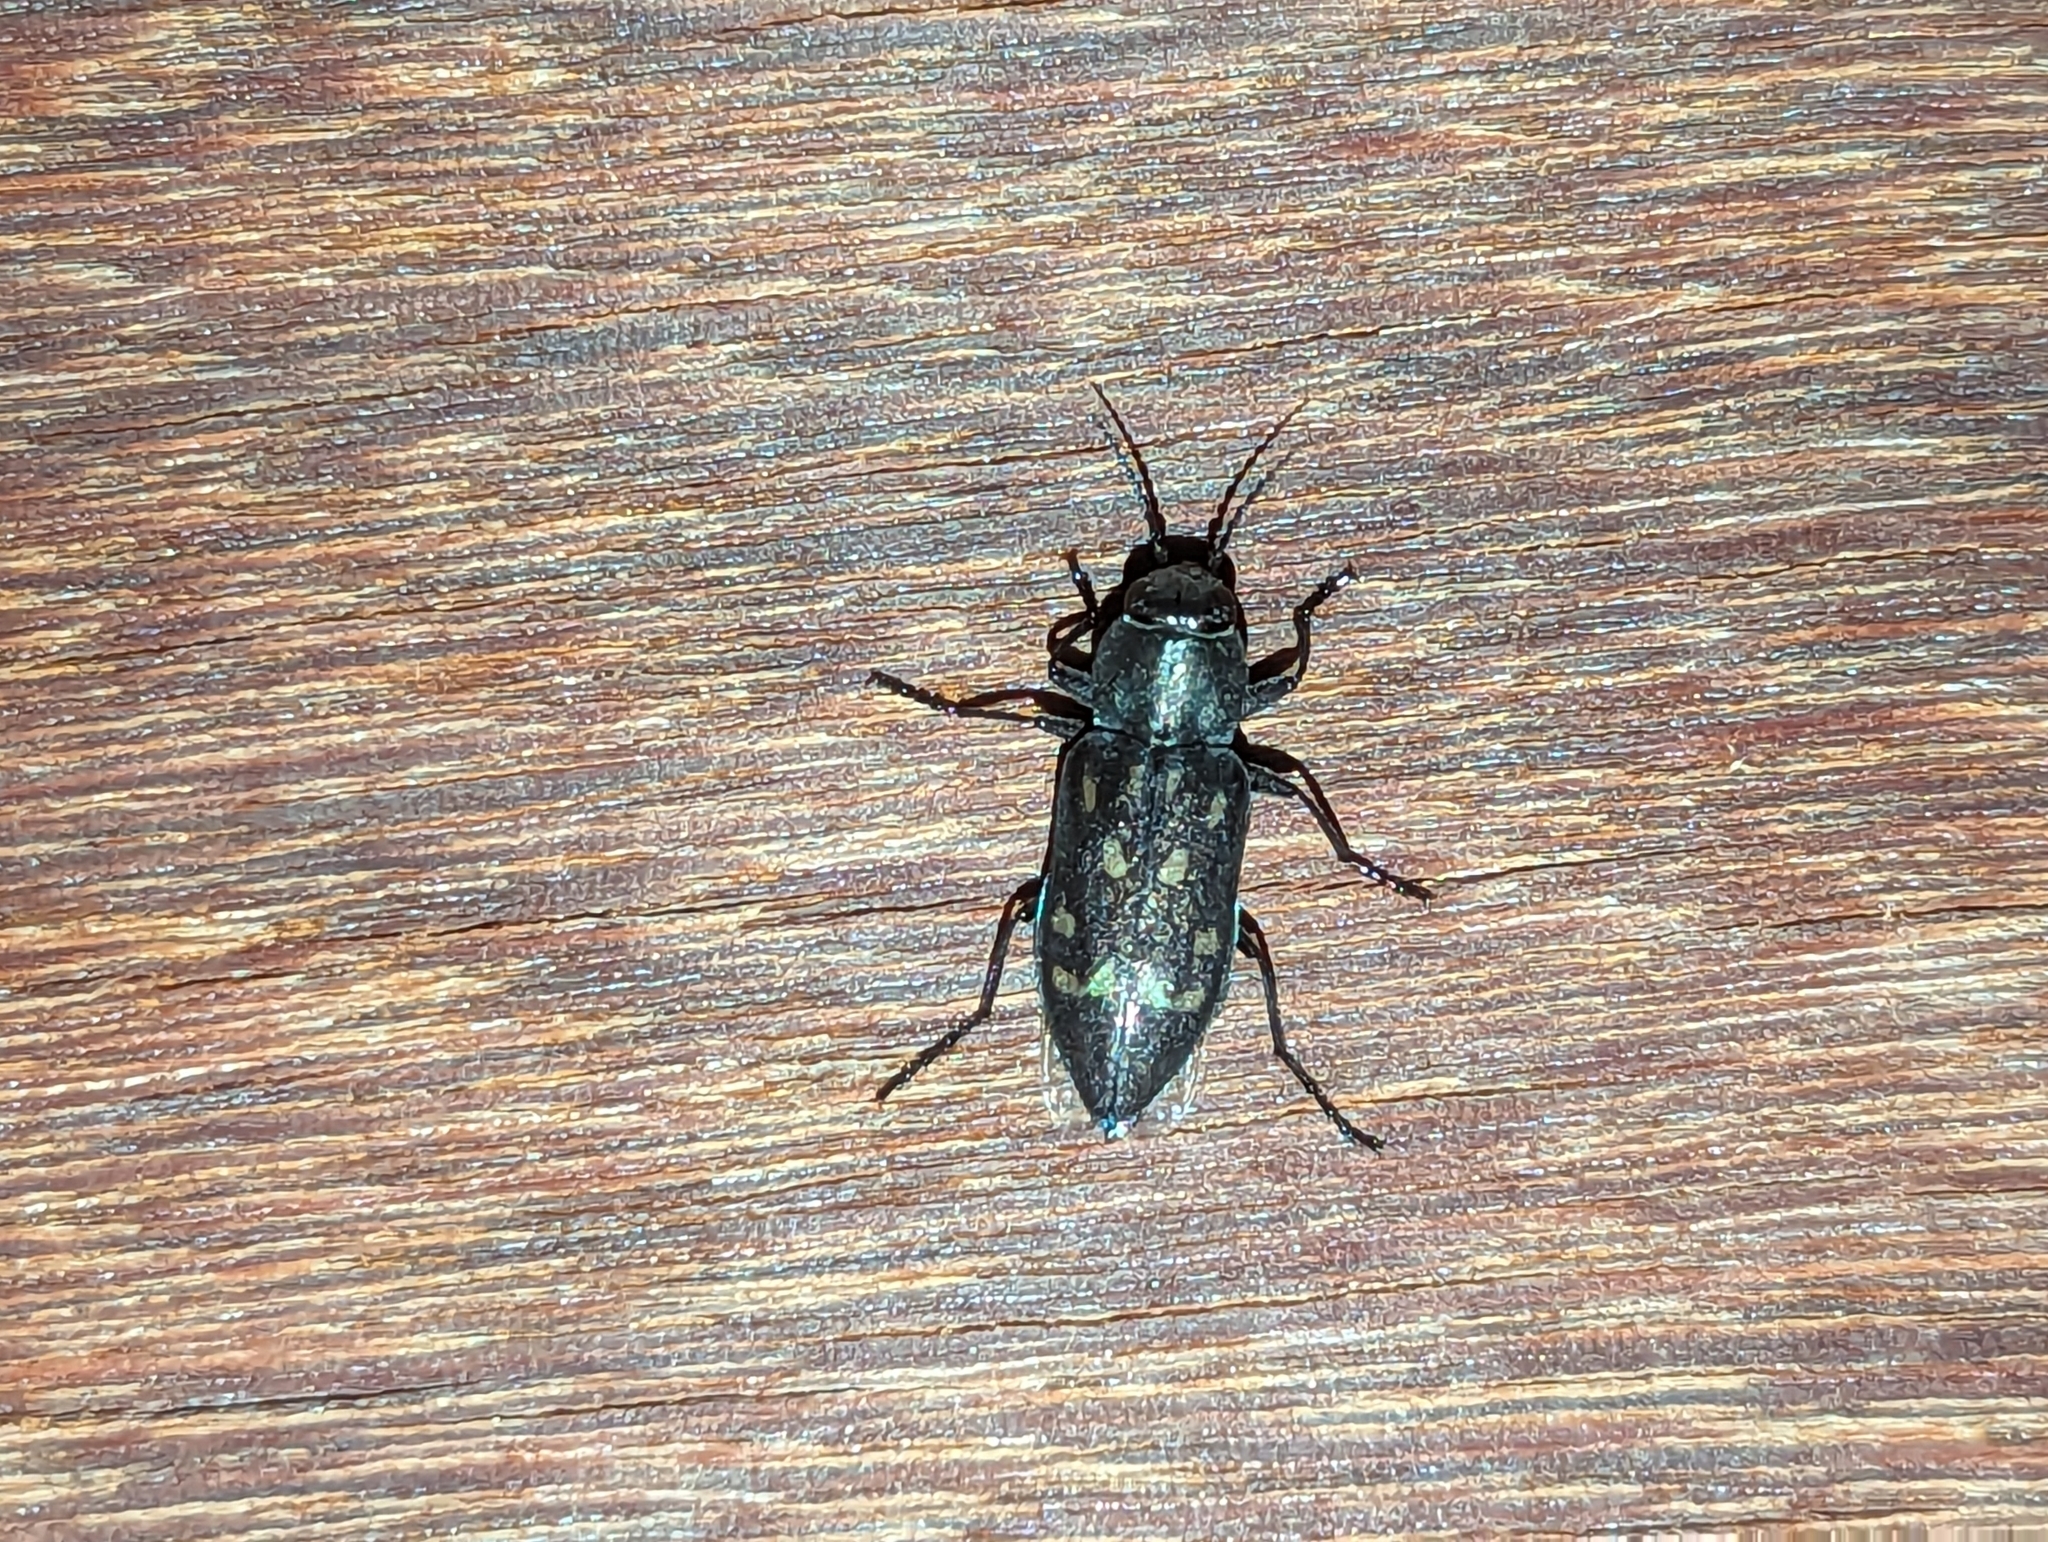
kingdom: Animalia
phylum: Arthropoda
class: Insecta
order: Coleoptera
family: Buprestidae
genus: Melanophila
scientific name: Melanophila consputa
